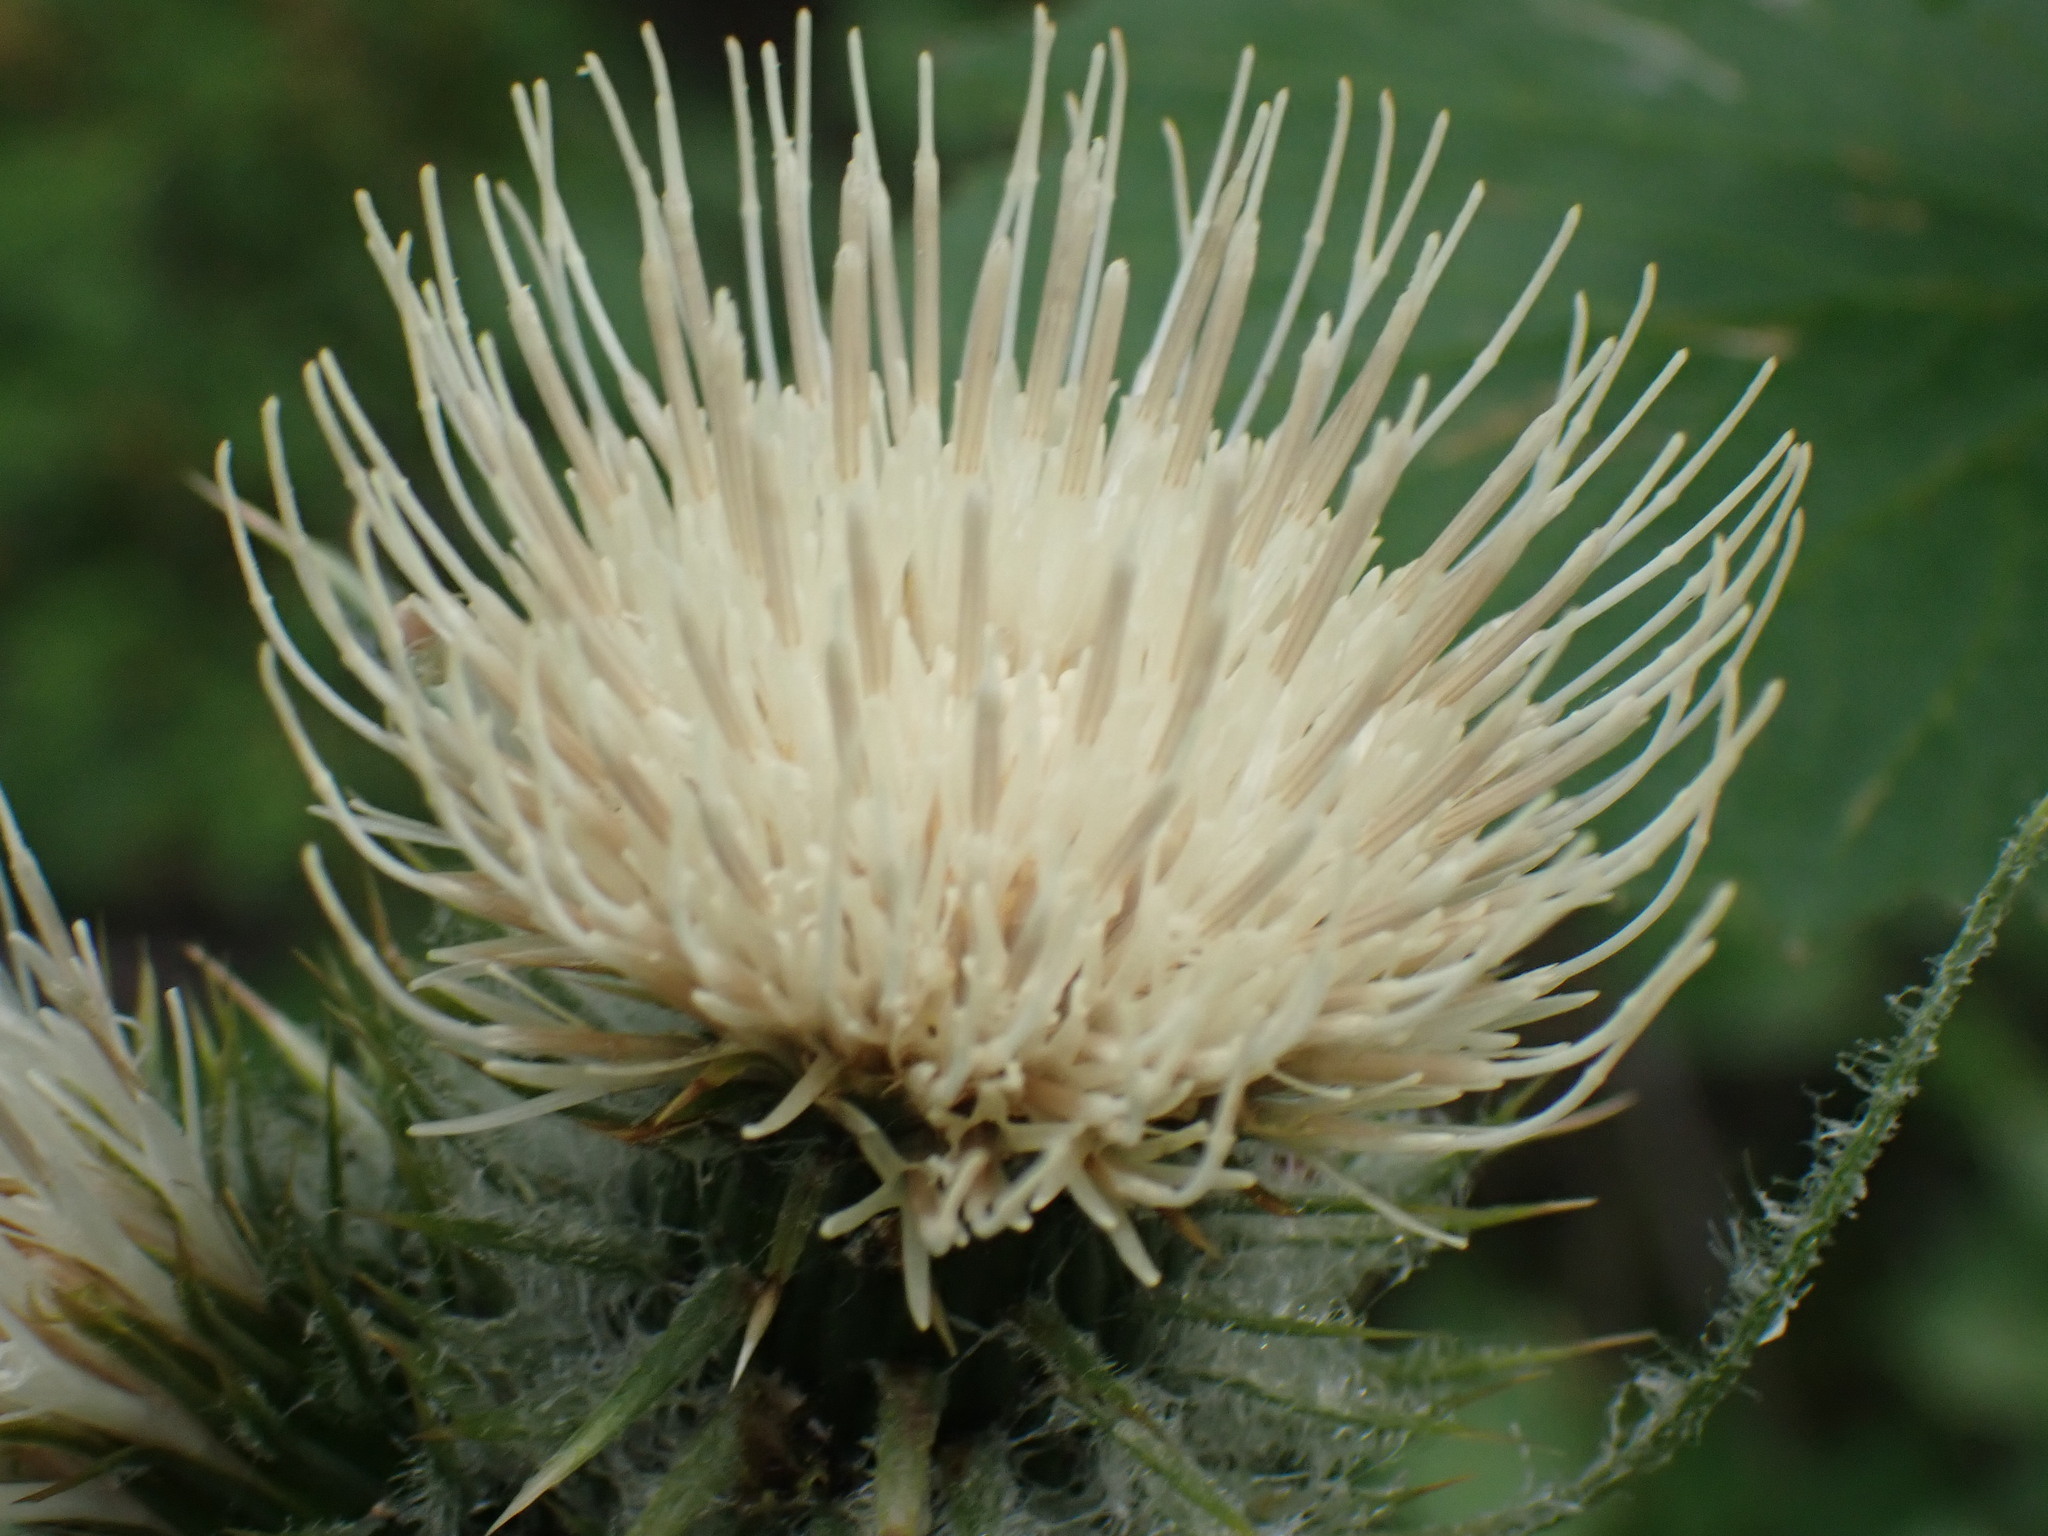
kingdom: Plantae
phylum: Tracheophyta
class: Magnoliopsida
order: Asterales
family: Asteraceae
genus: Cirsium
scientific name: Cirsium hookerianum
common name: Hooker's thistle
